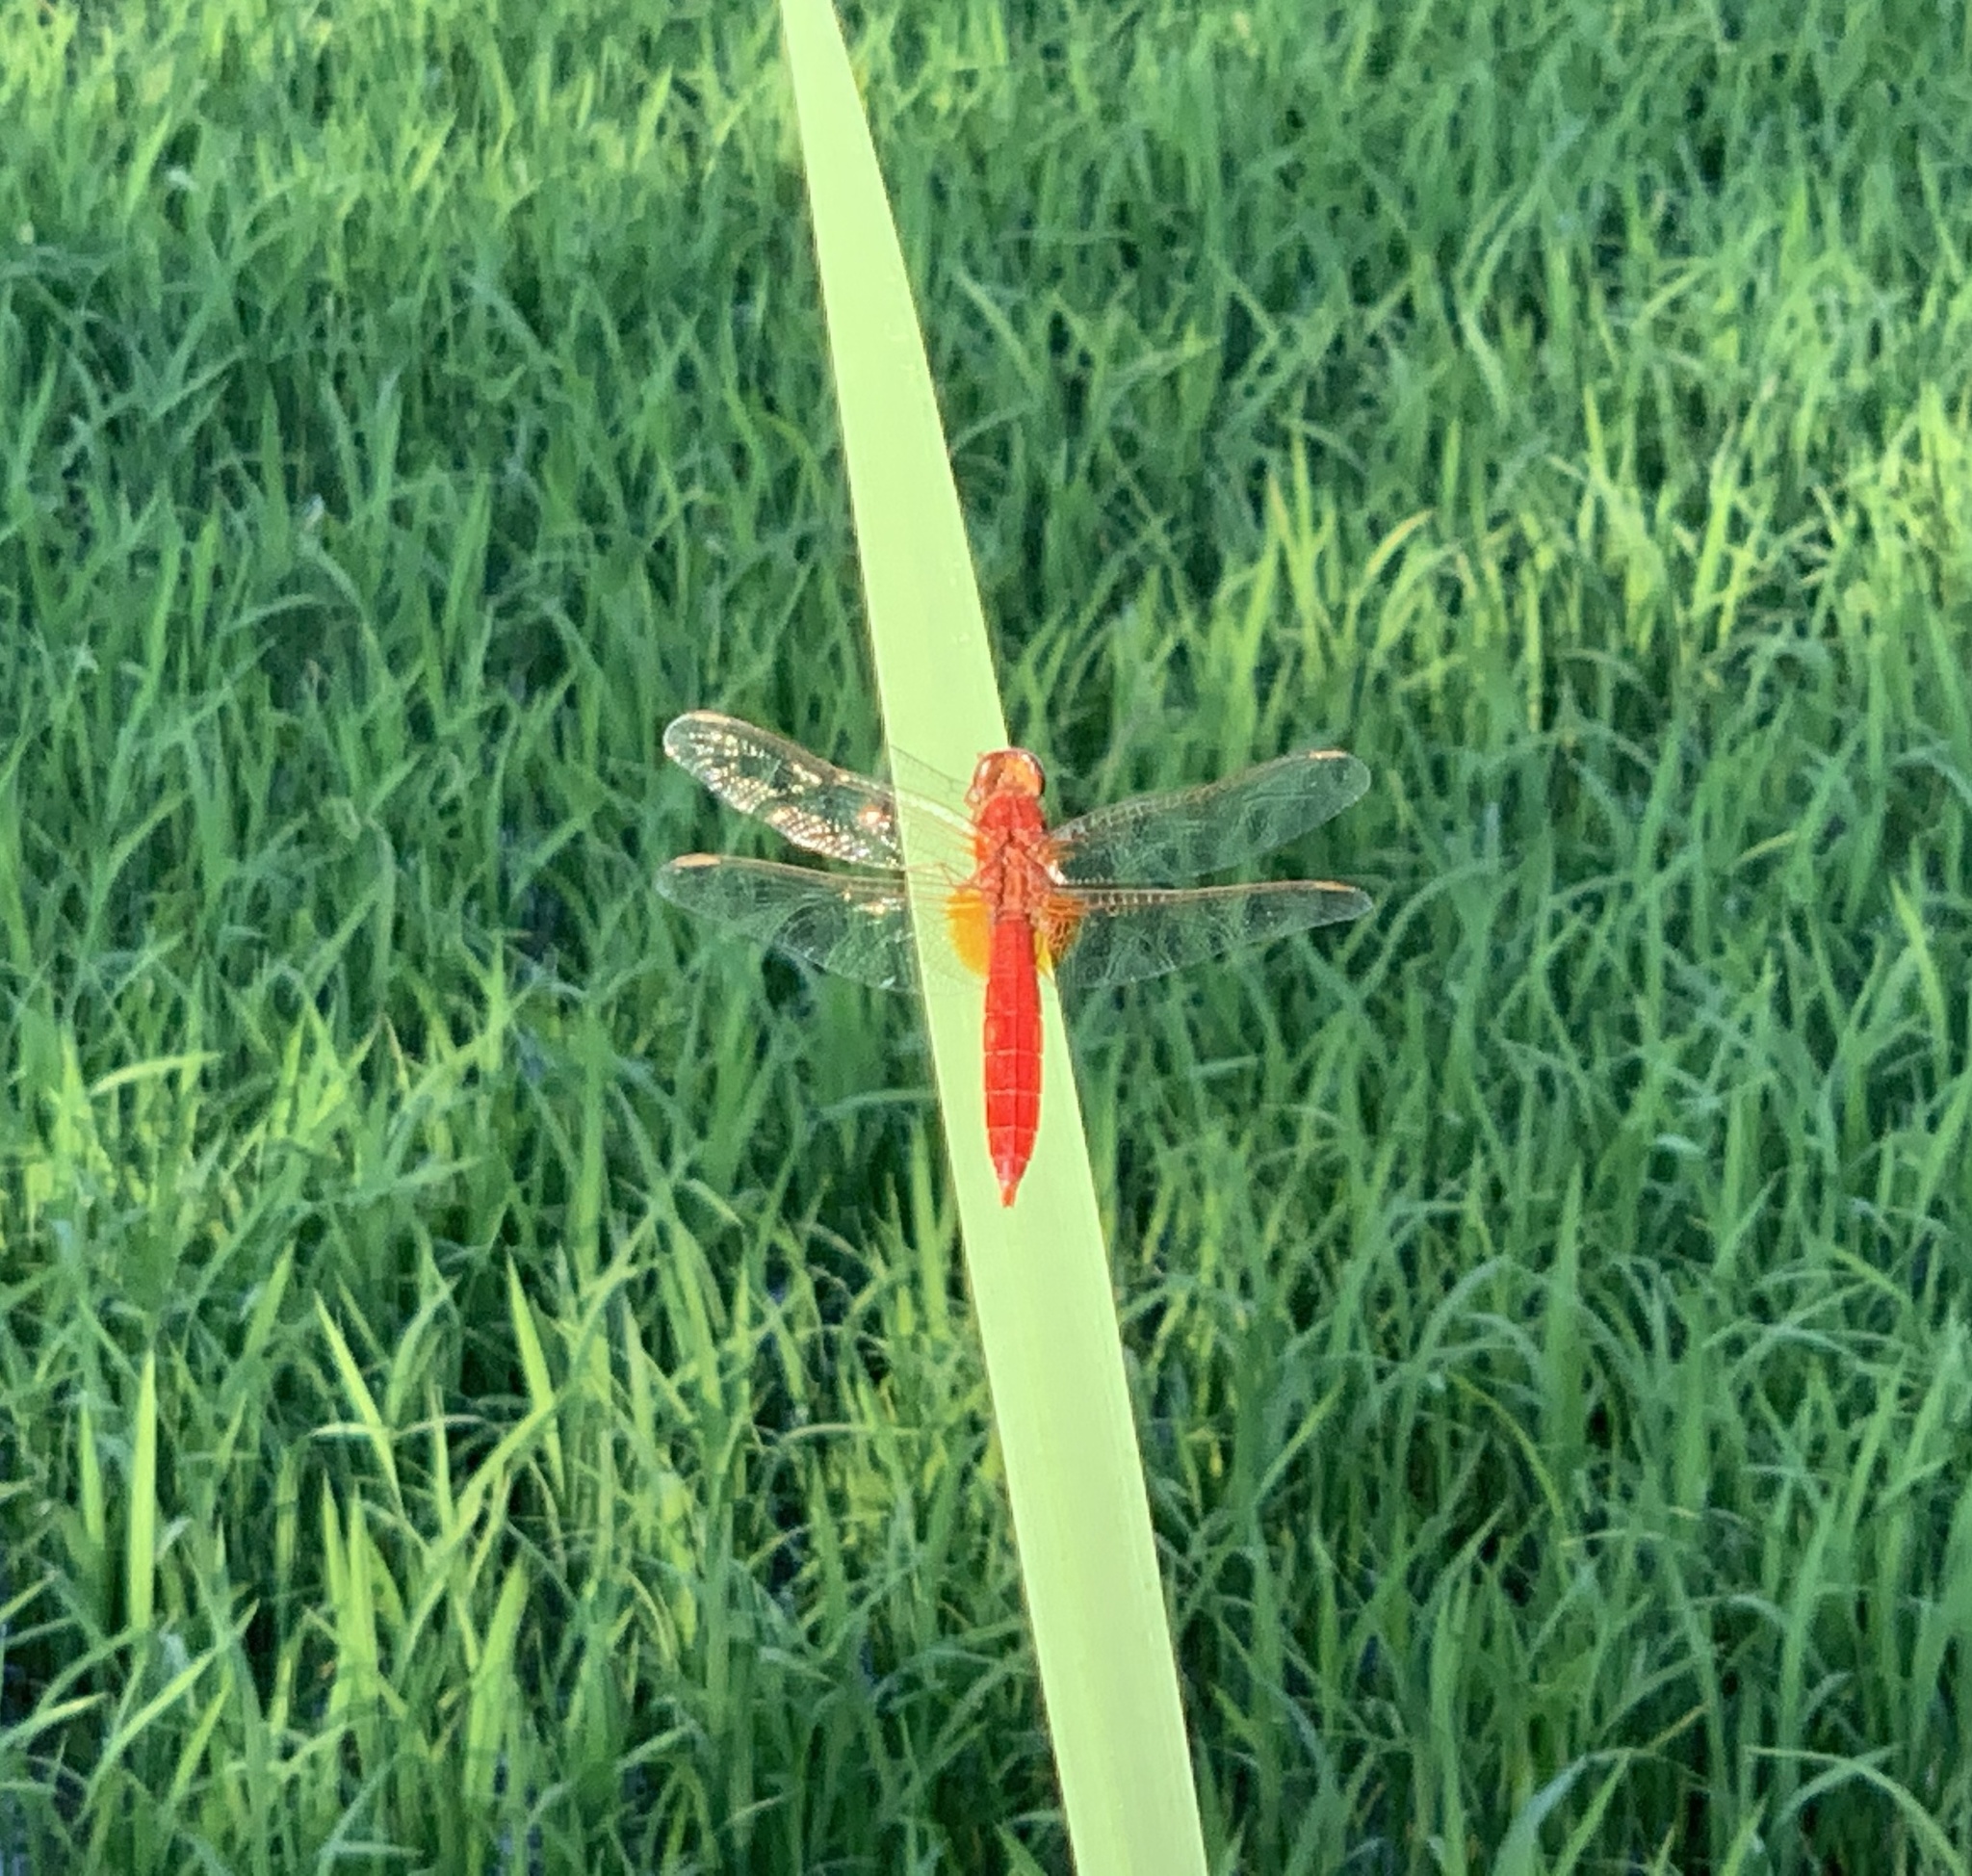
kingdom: Animalia
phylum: Arthropoda
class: Insecta
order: Odonata
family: Libellulidae
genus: Crocothemis
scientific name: Crocothemis erythraea
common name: Scarlet dragonfly
